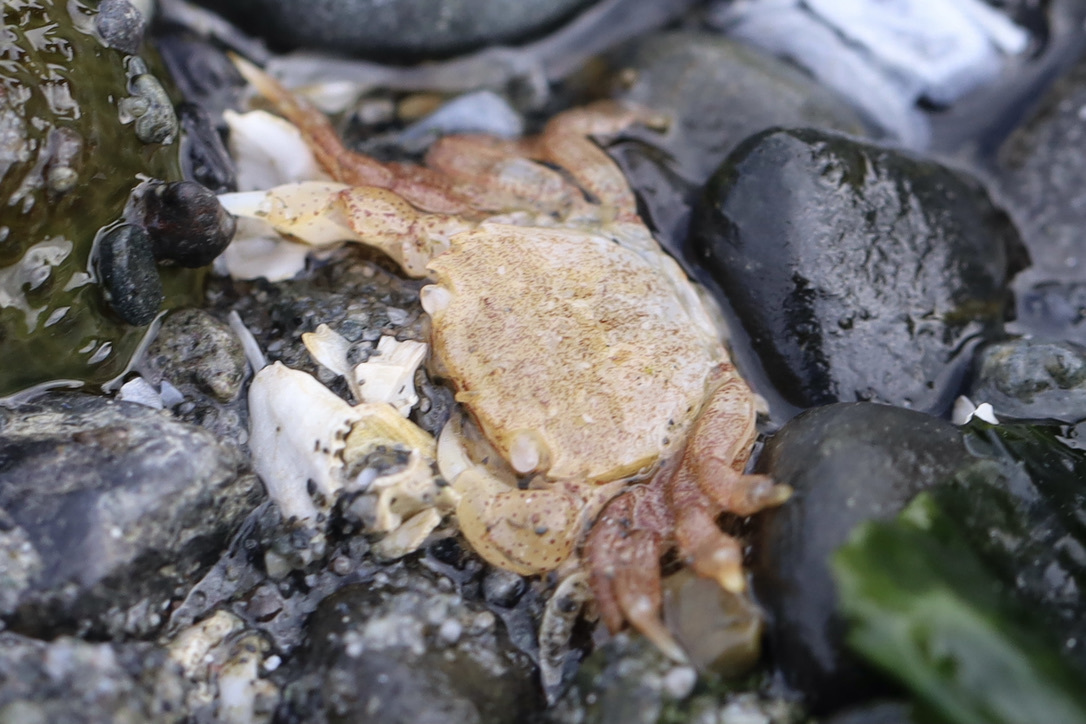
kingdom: Animalia
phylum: Arthropoda
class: Malacostraca
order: Decapoda
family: Varunidae
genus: Hemigrapsus
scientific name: Hemigrapsus oregonensis
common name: Yellow shore crab
